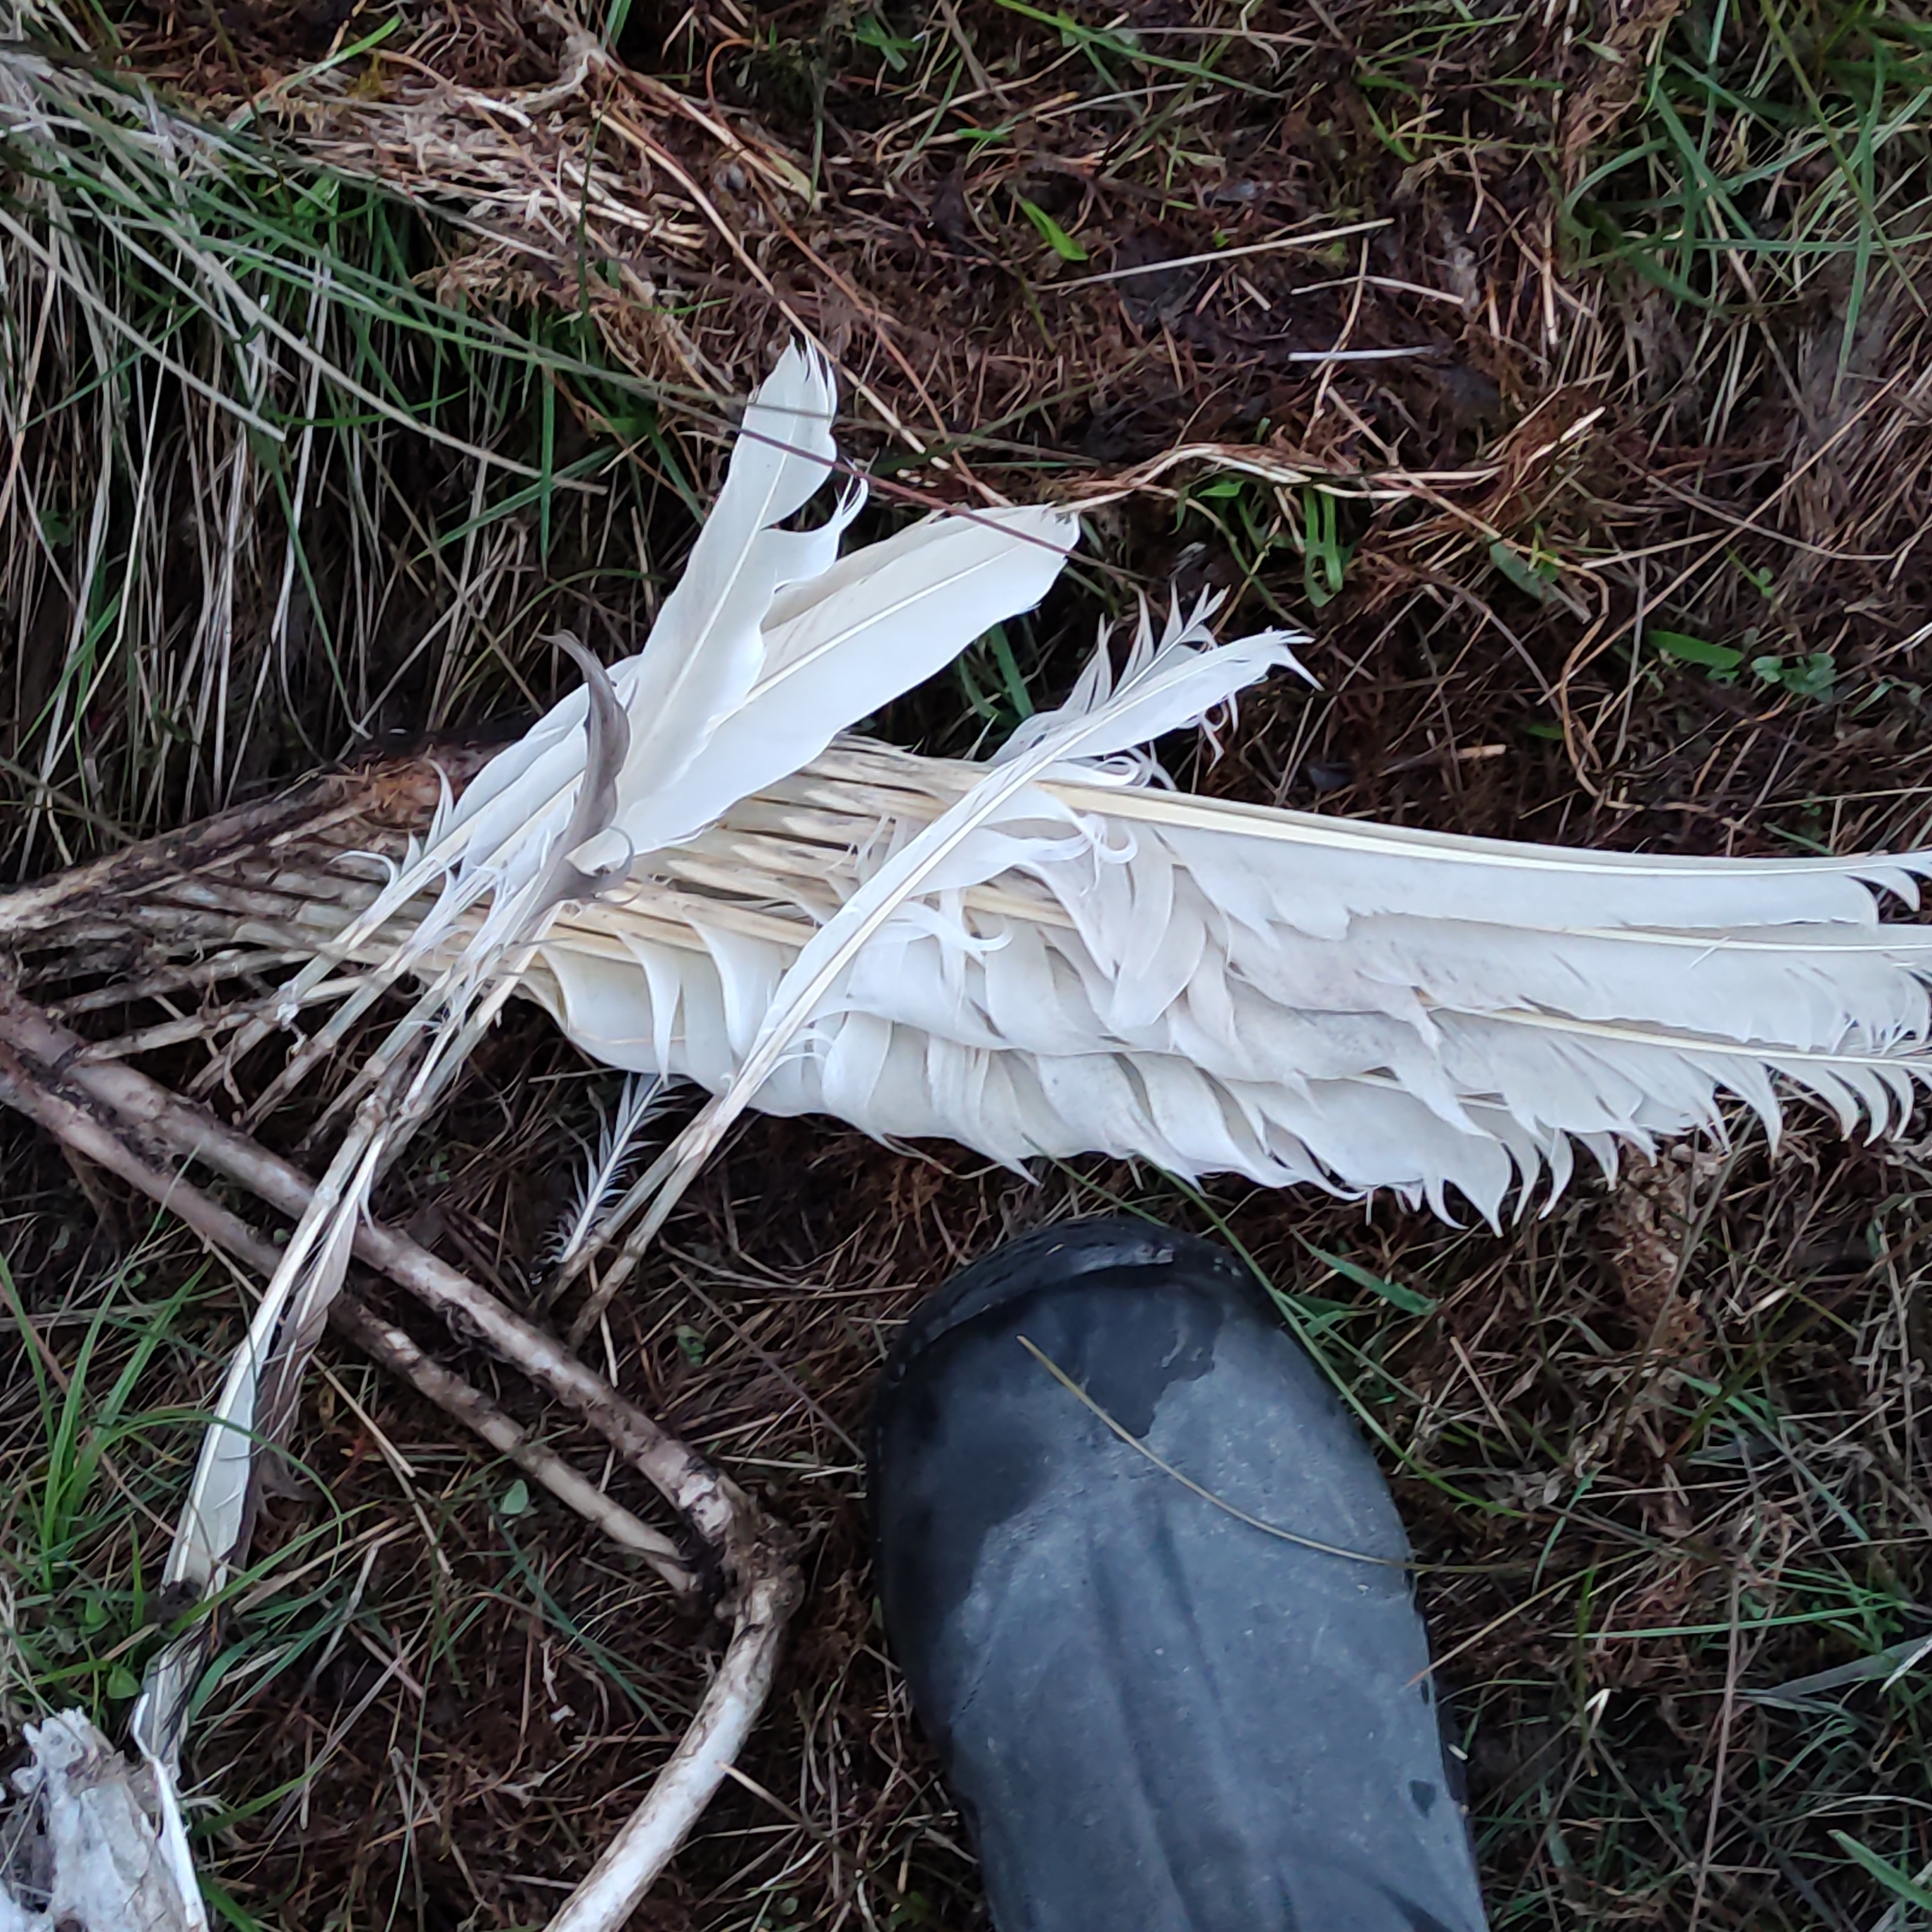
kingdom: Animalia
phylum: Chordata
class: Aves
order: Anseriformes
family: Anatidae
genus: Cygnus
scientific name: Cygnus atratus
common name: Black swan
